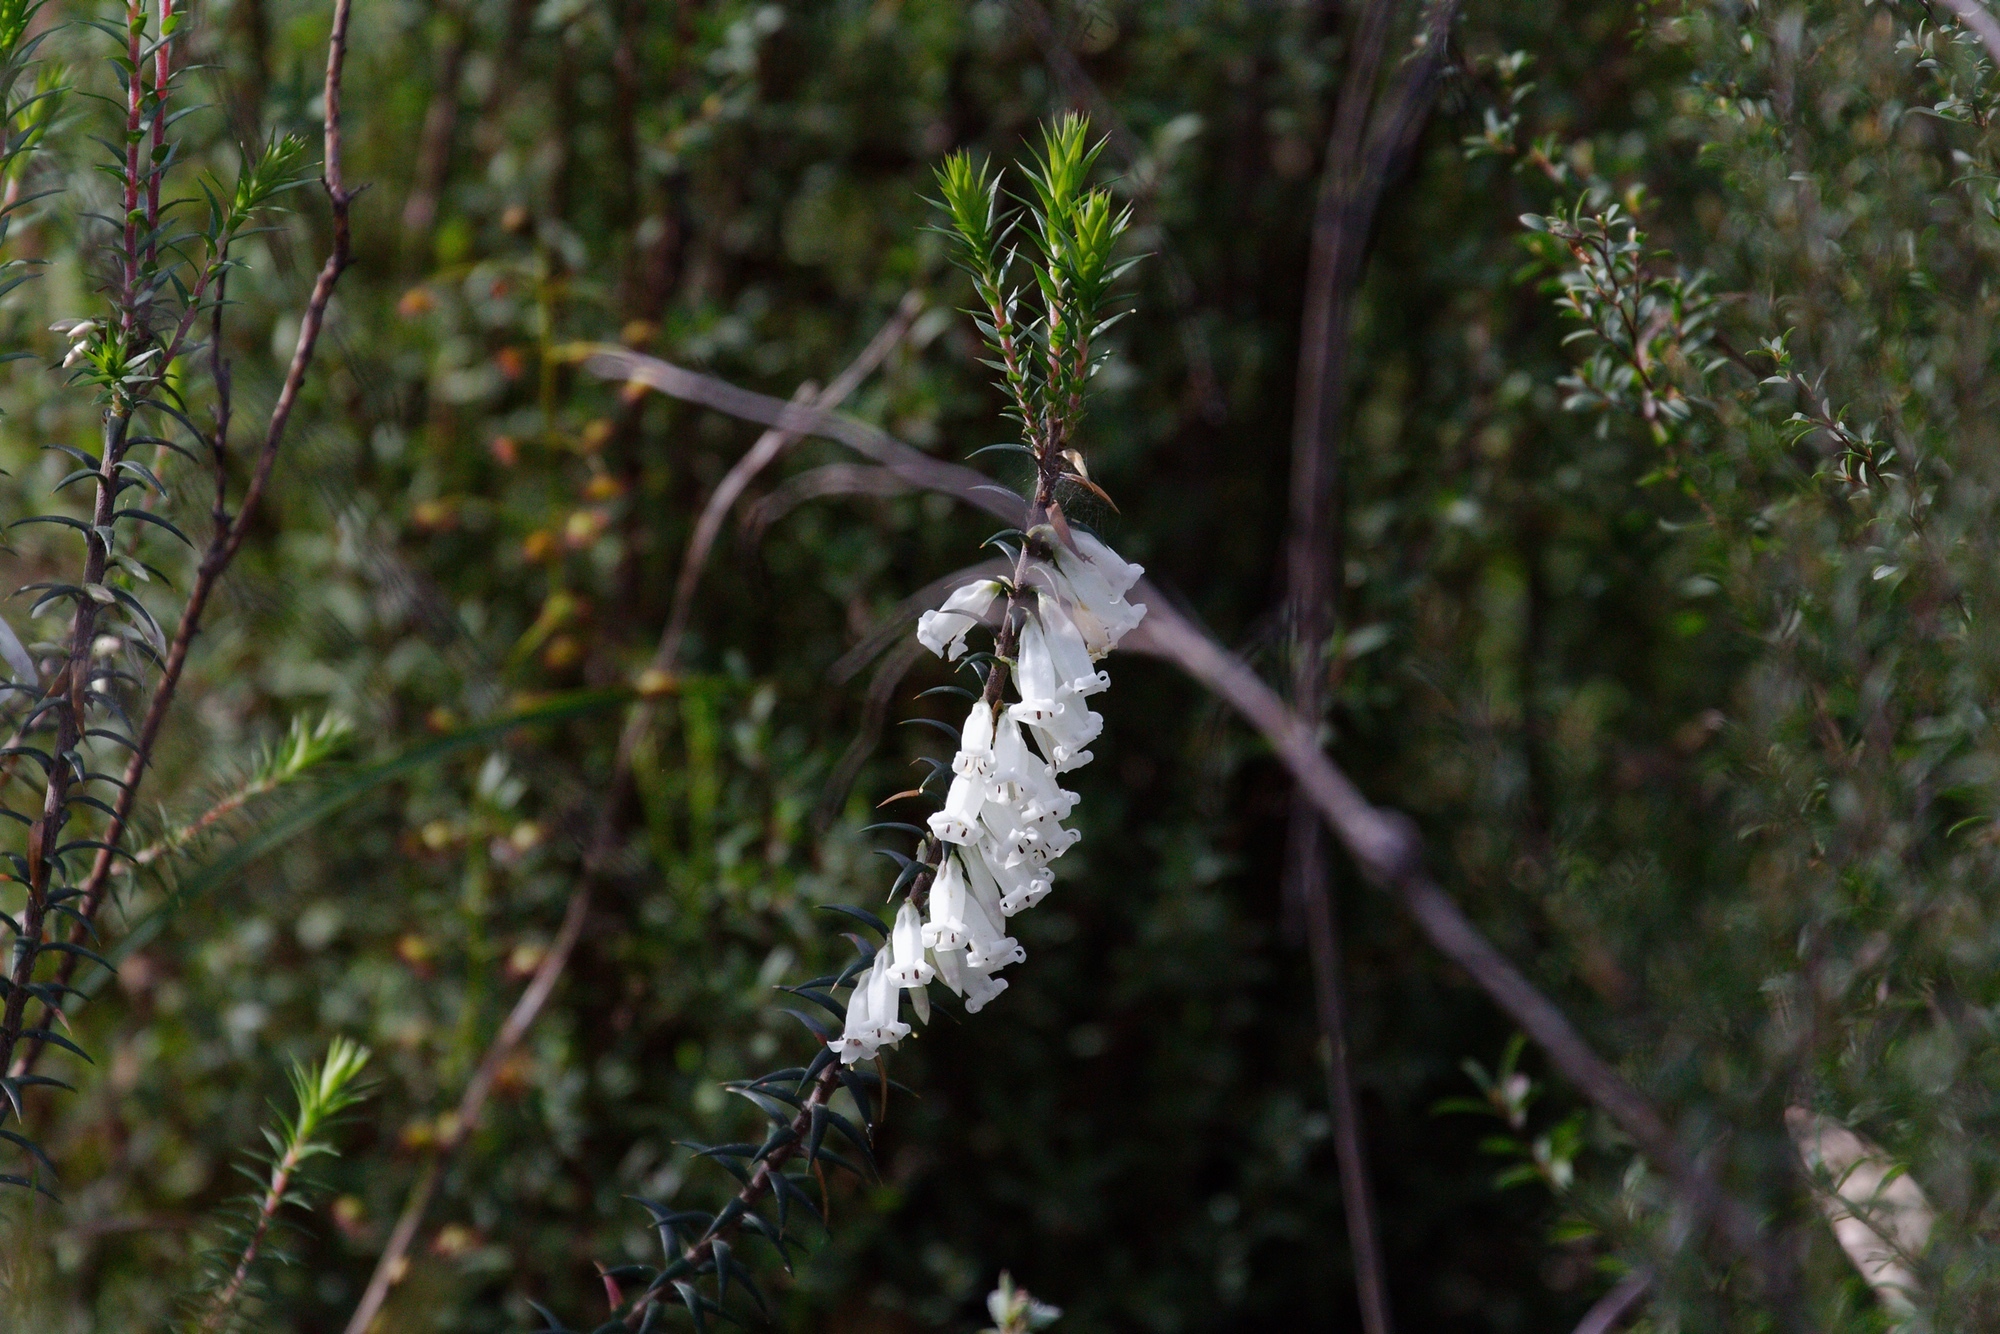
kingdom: Plantae
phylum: Tracheophyta
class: Magnoliopsida
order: Ericales
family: Ericaceae
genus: Epacris
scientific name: Epacris impressa
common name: Common-heath
